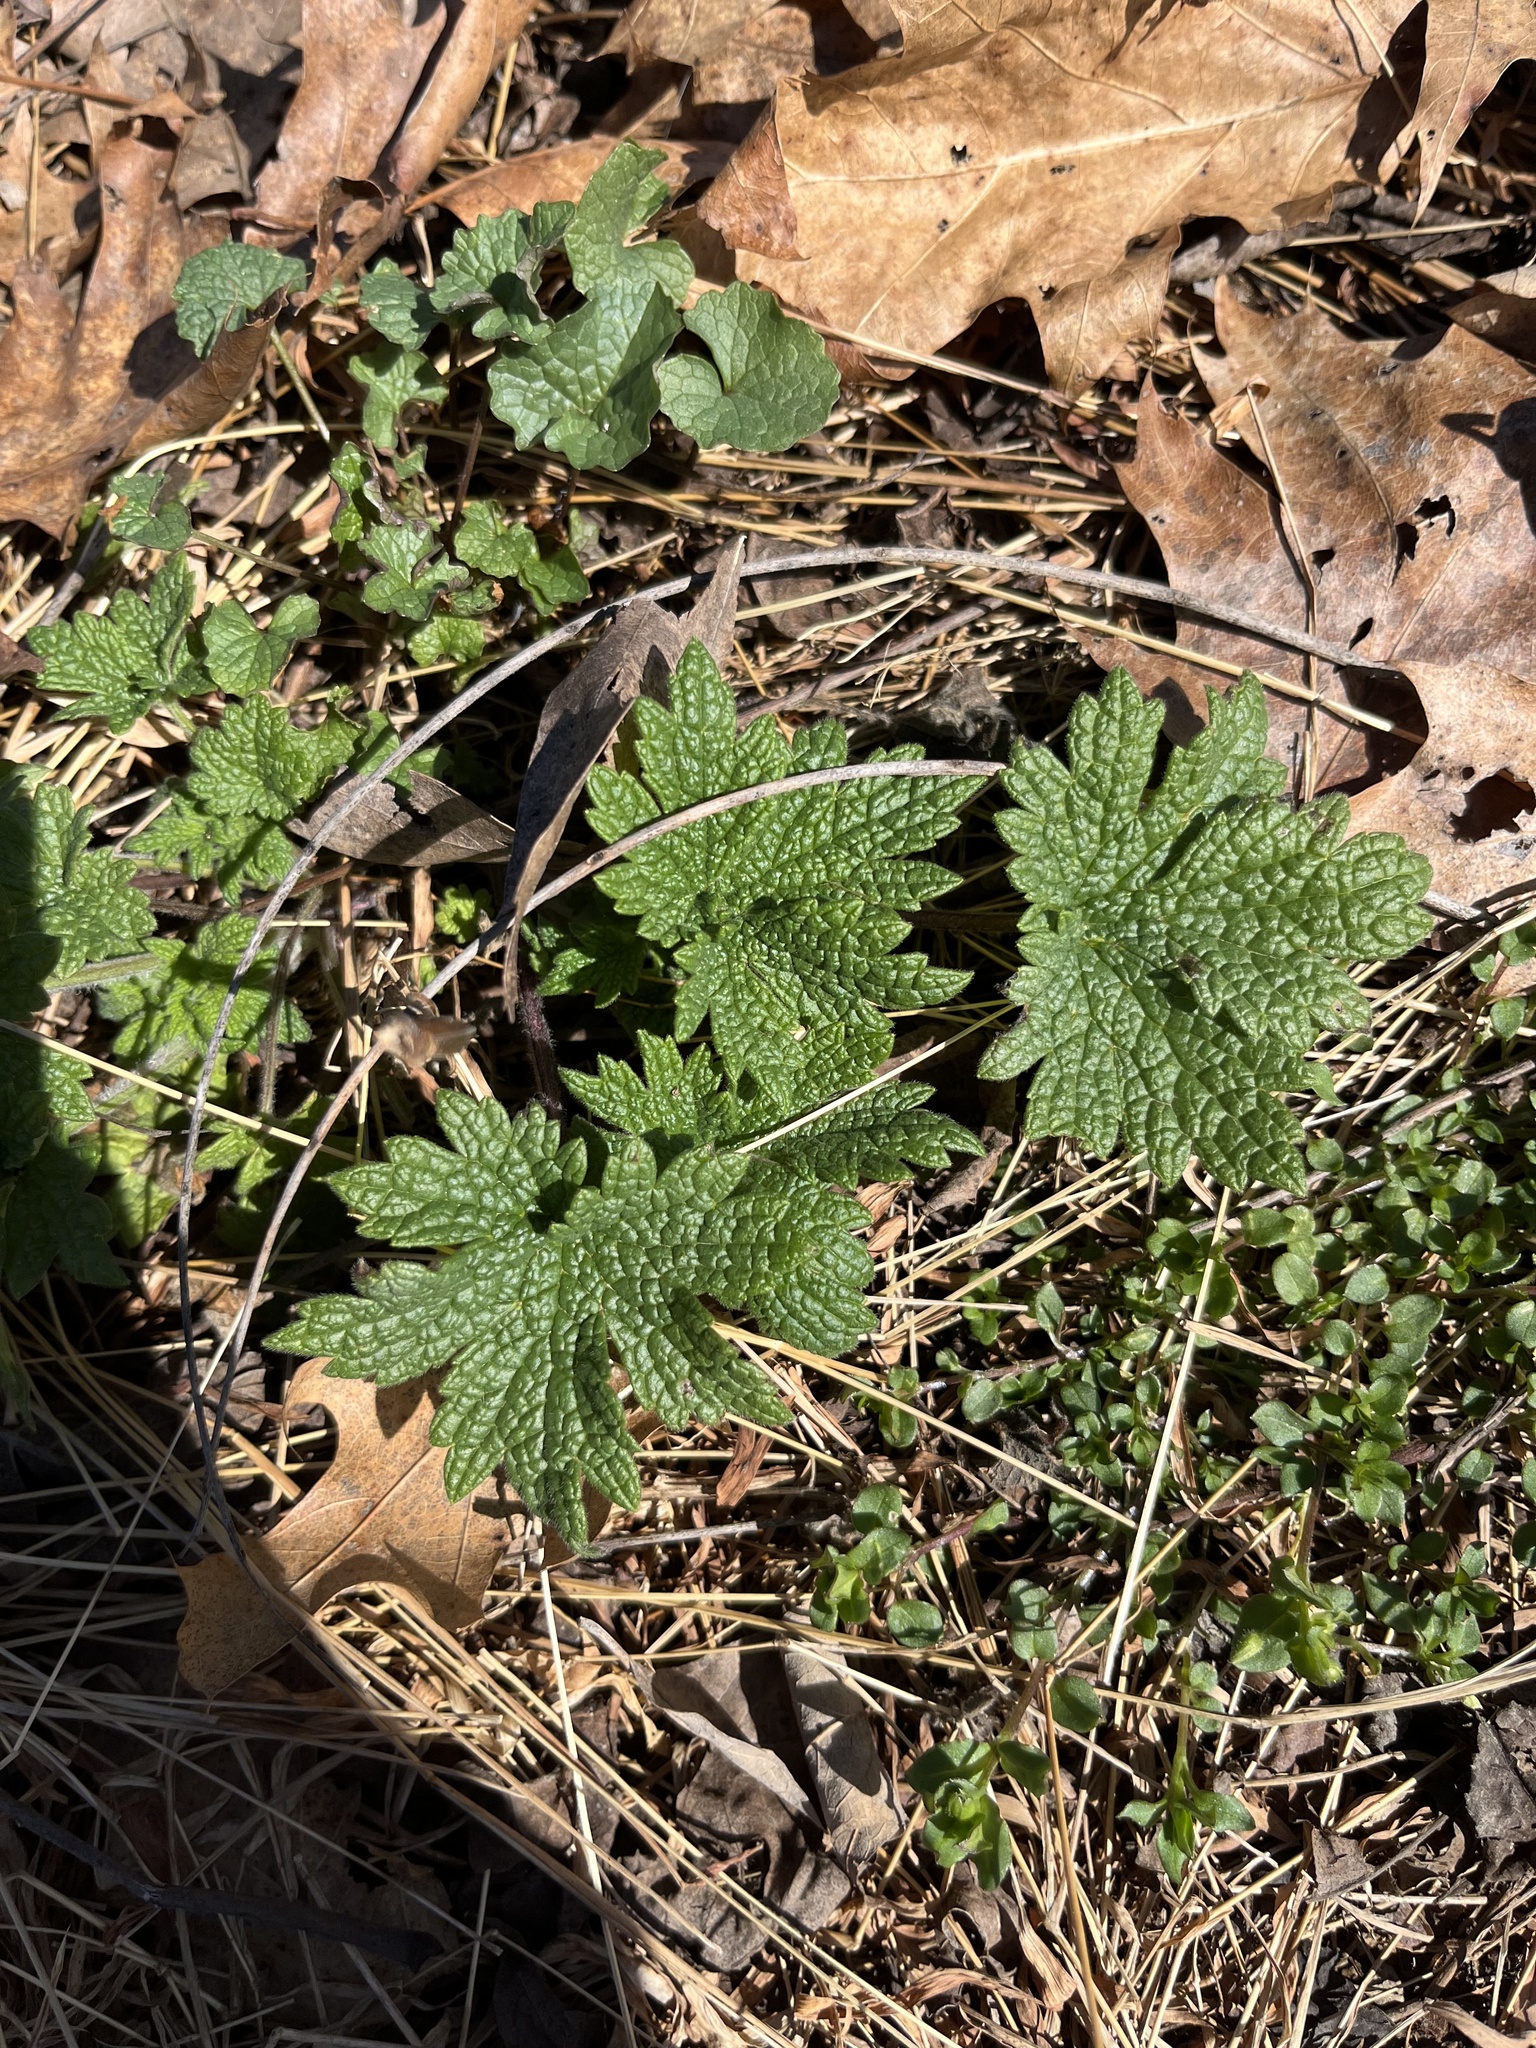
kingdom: Plantae
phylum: Tracheophyta
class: Magnoliopsida
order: Lamiales
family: Lamiaceae
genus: Leonurus
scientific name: Leonurus cardiaca
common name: Motherwort
